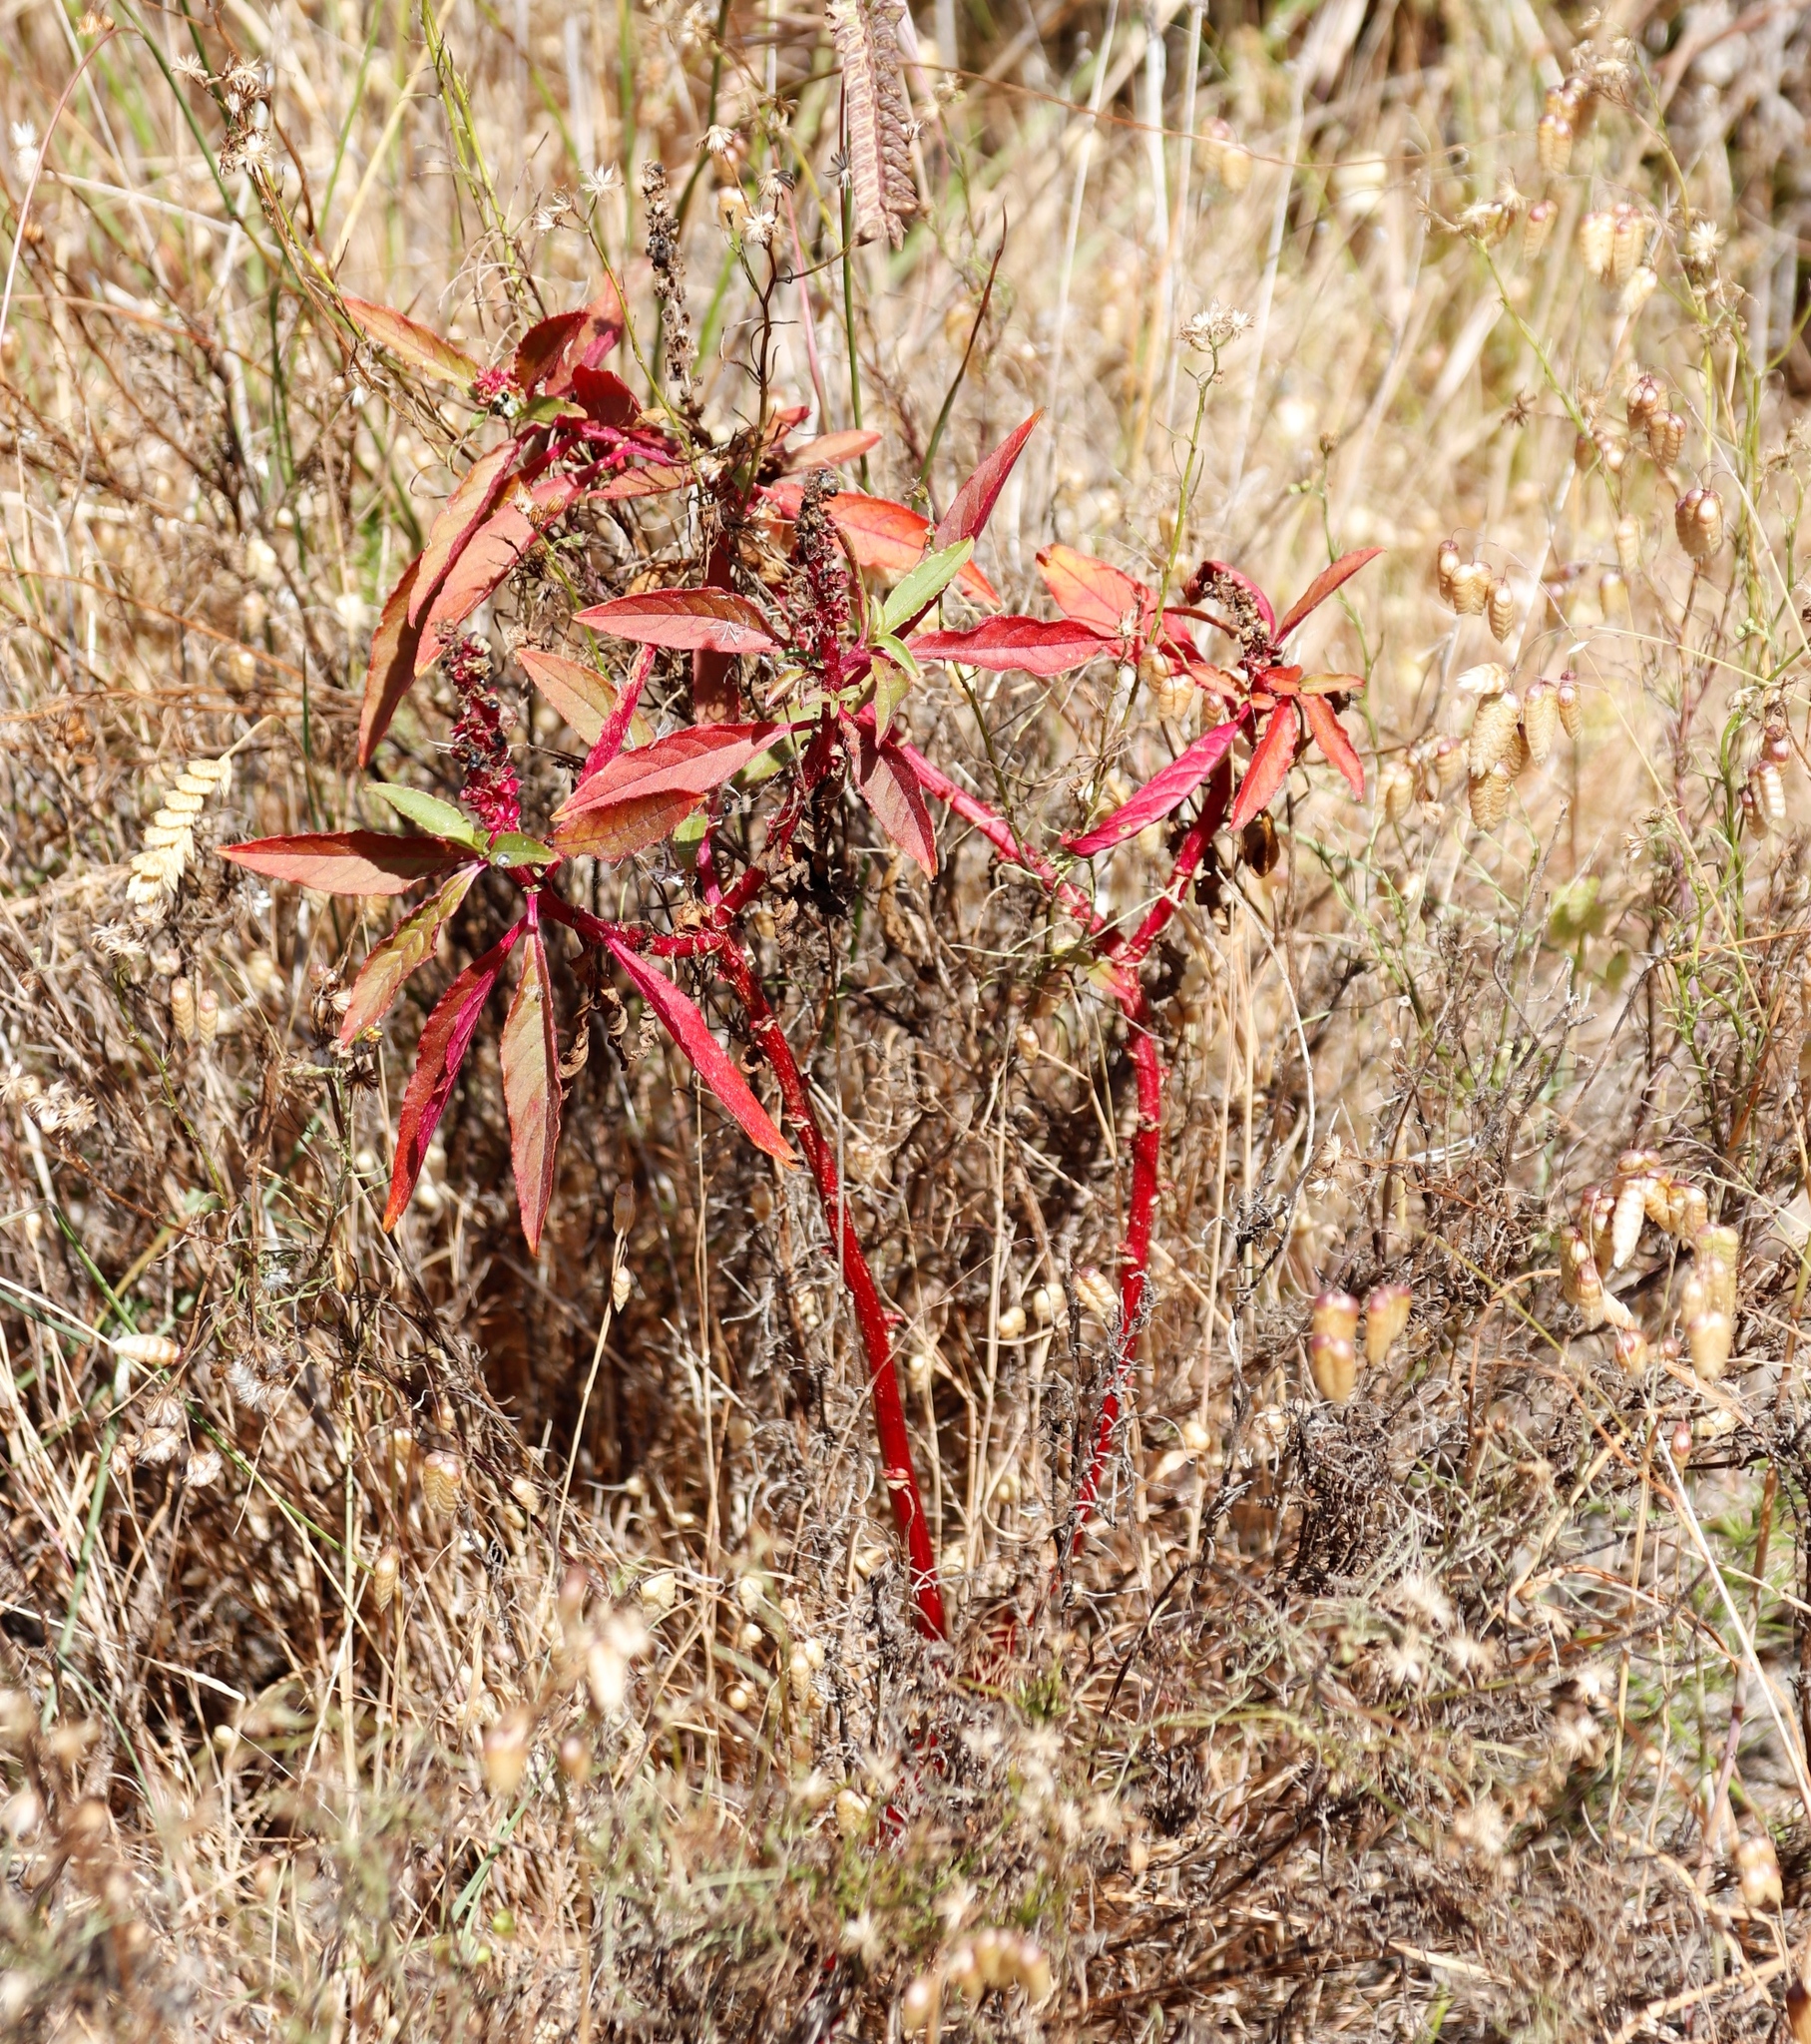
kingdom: Plantae
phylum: Tracheophyta
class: Magnoliopsida
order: Caryophyllales
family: Phytolaccaceae
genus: Phytolacca
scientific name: Phytolacca icosandra
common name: Button pokeweed
